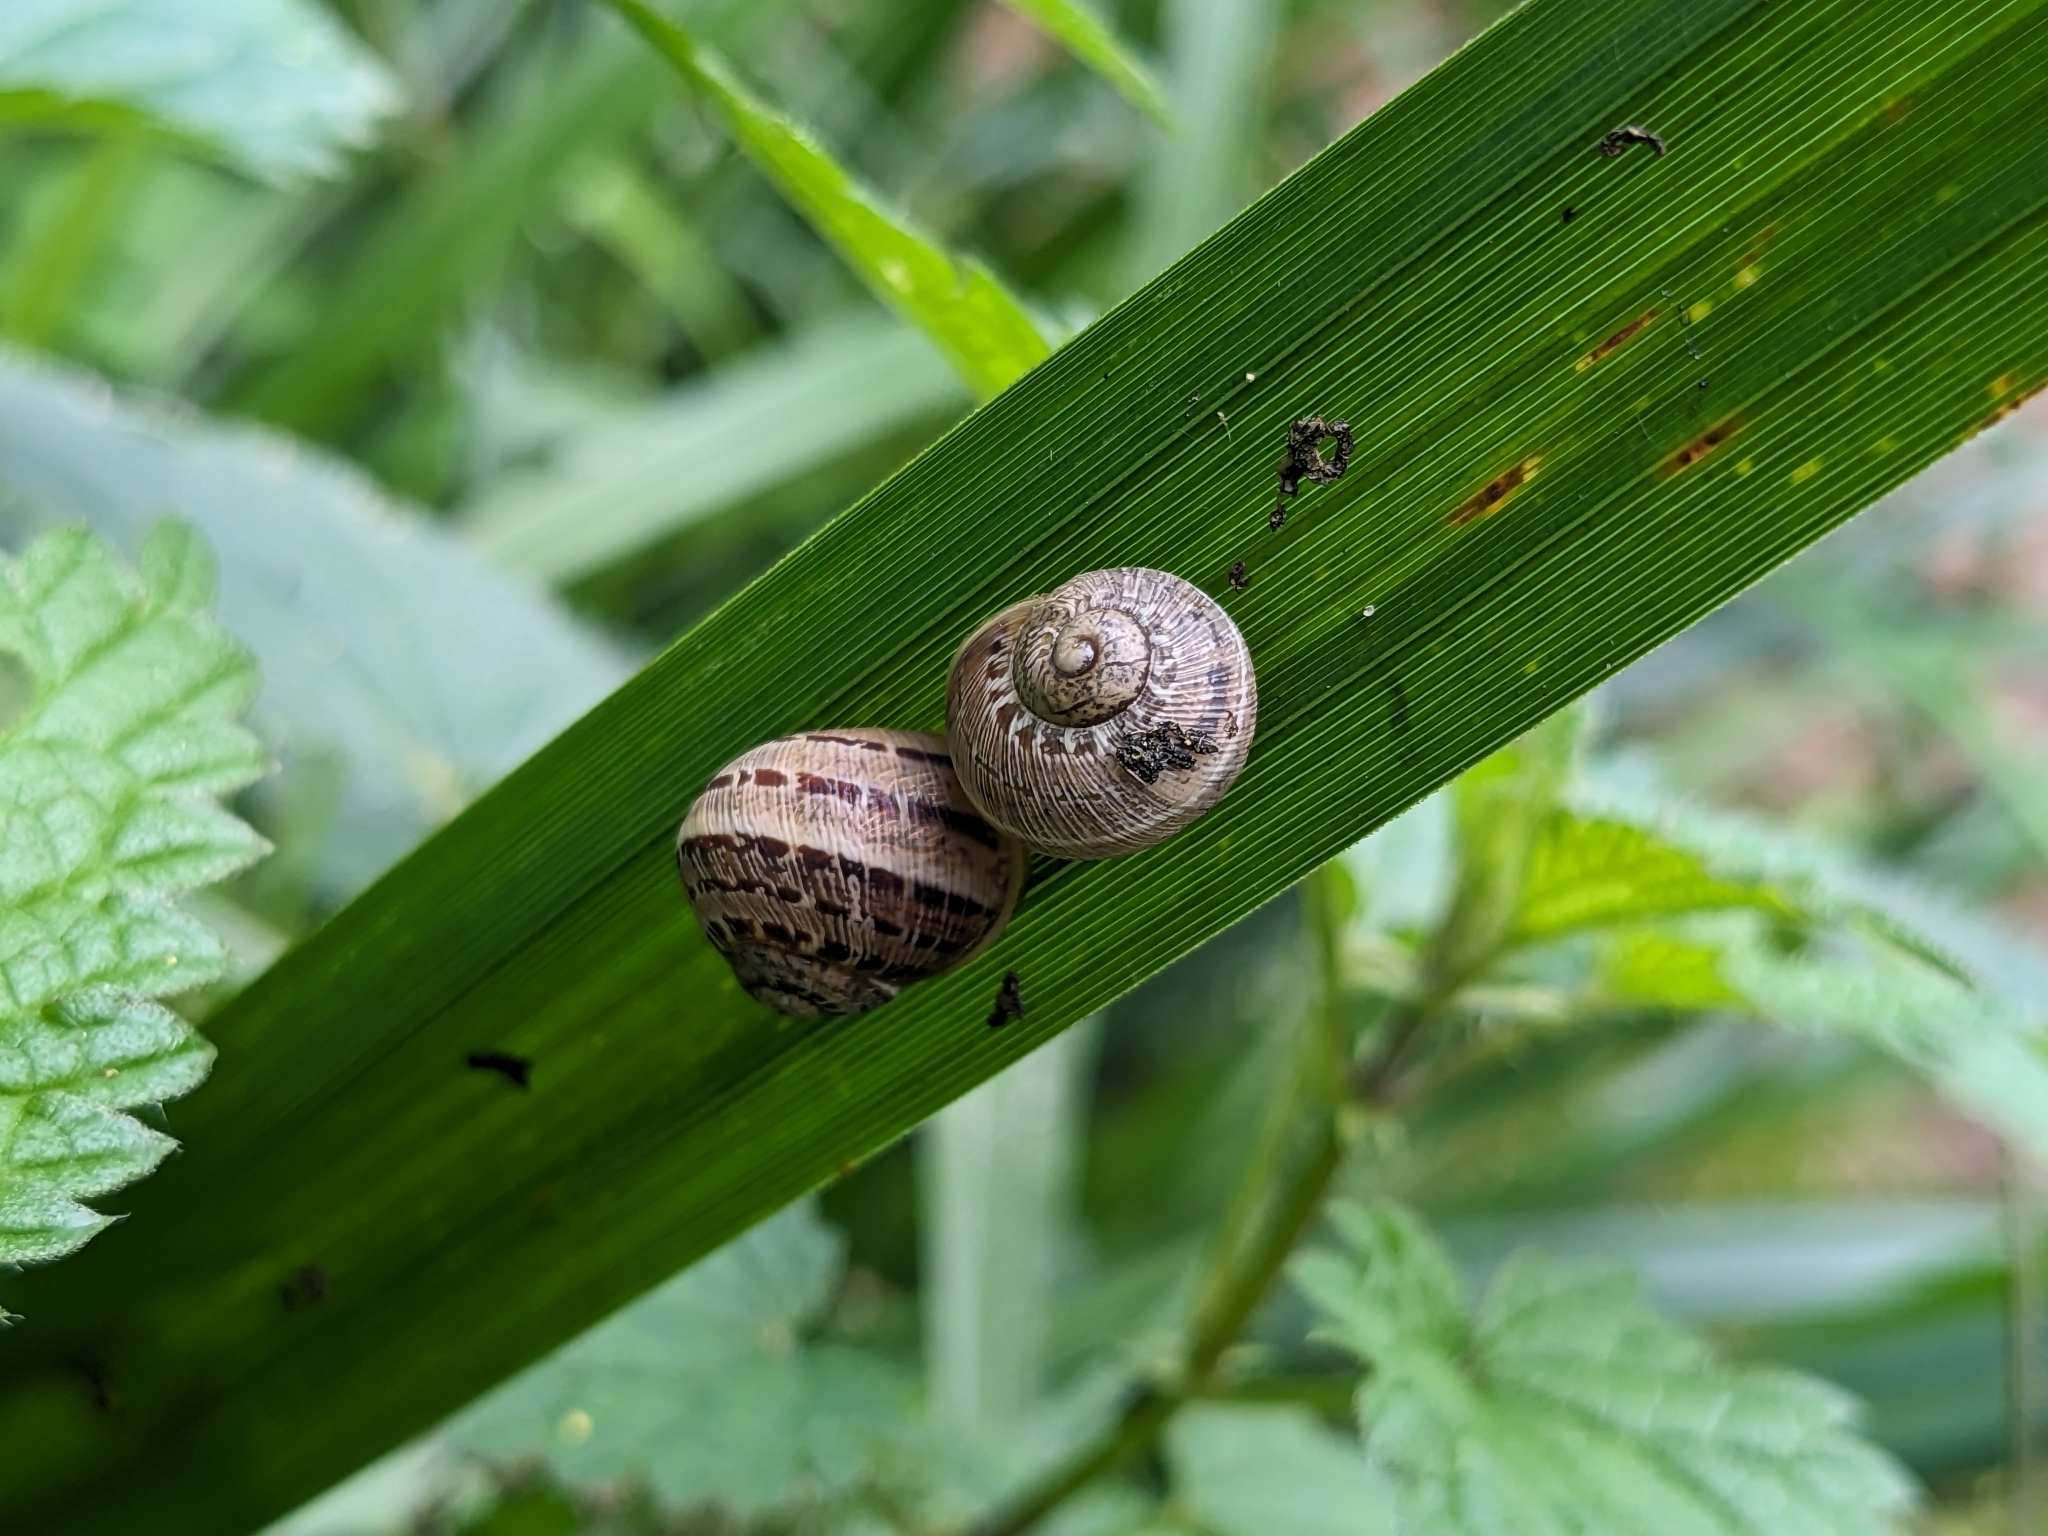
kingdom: Animalia
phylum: Mollusca
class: Gastropoda
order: Stylommatophora
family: Helicidae
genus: Cornu
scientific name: Cornu aspersum
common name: Brown garden snail
